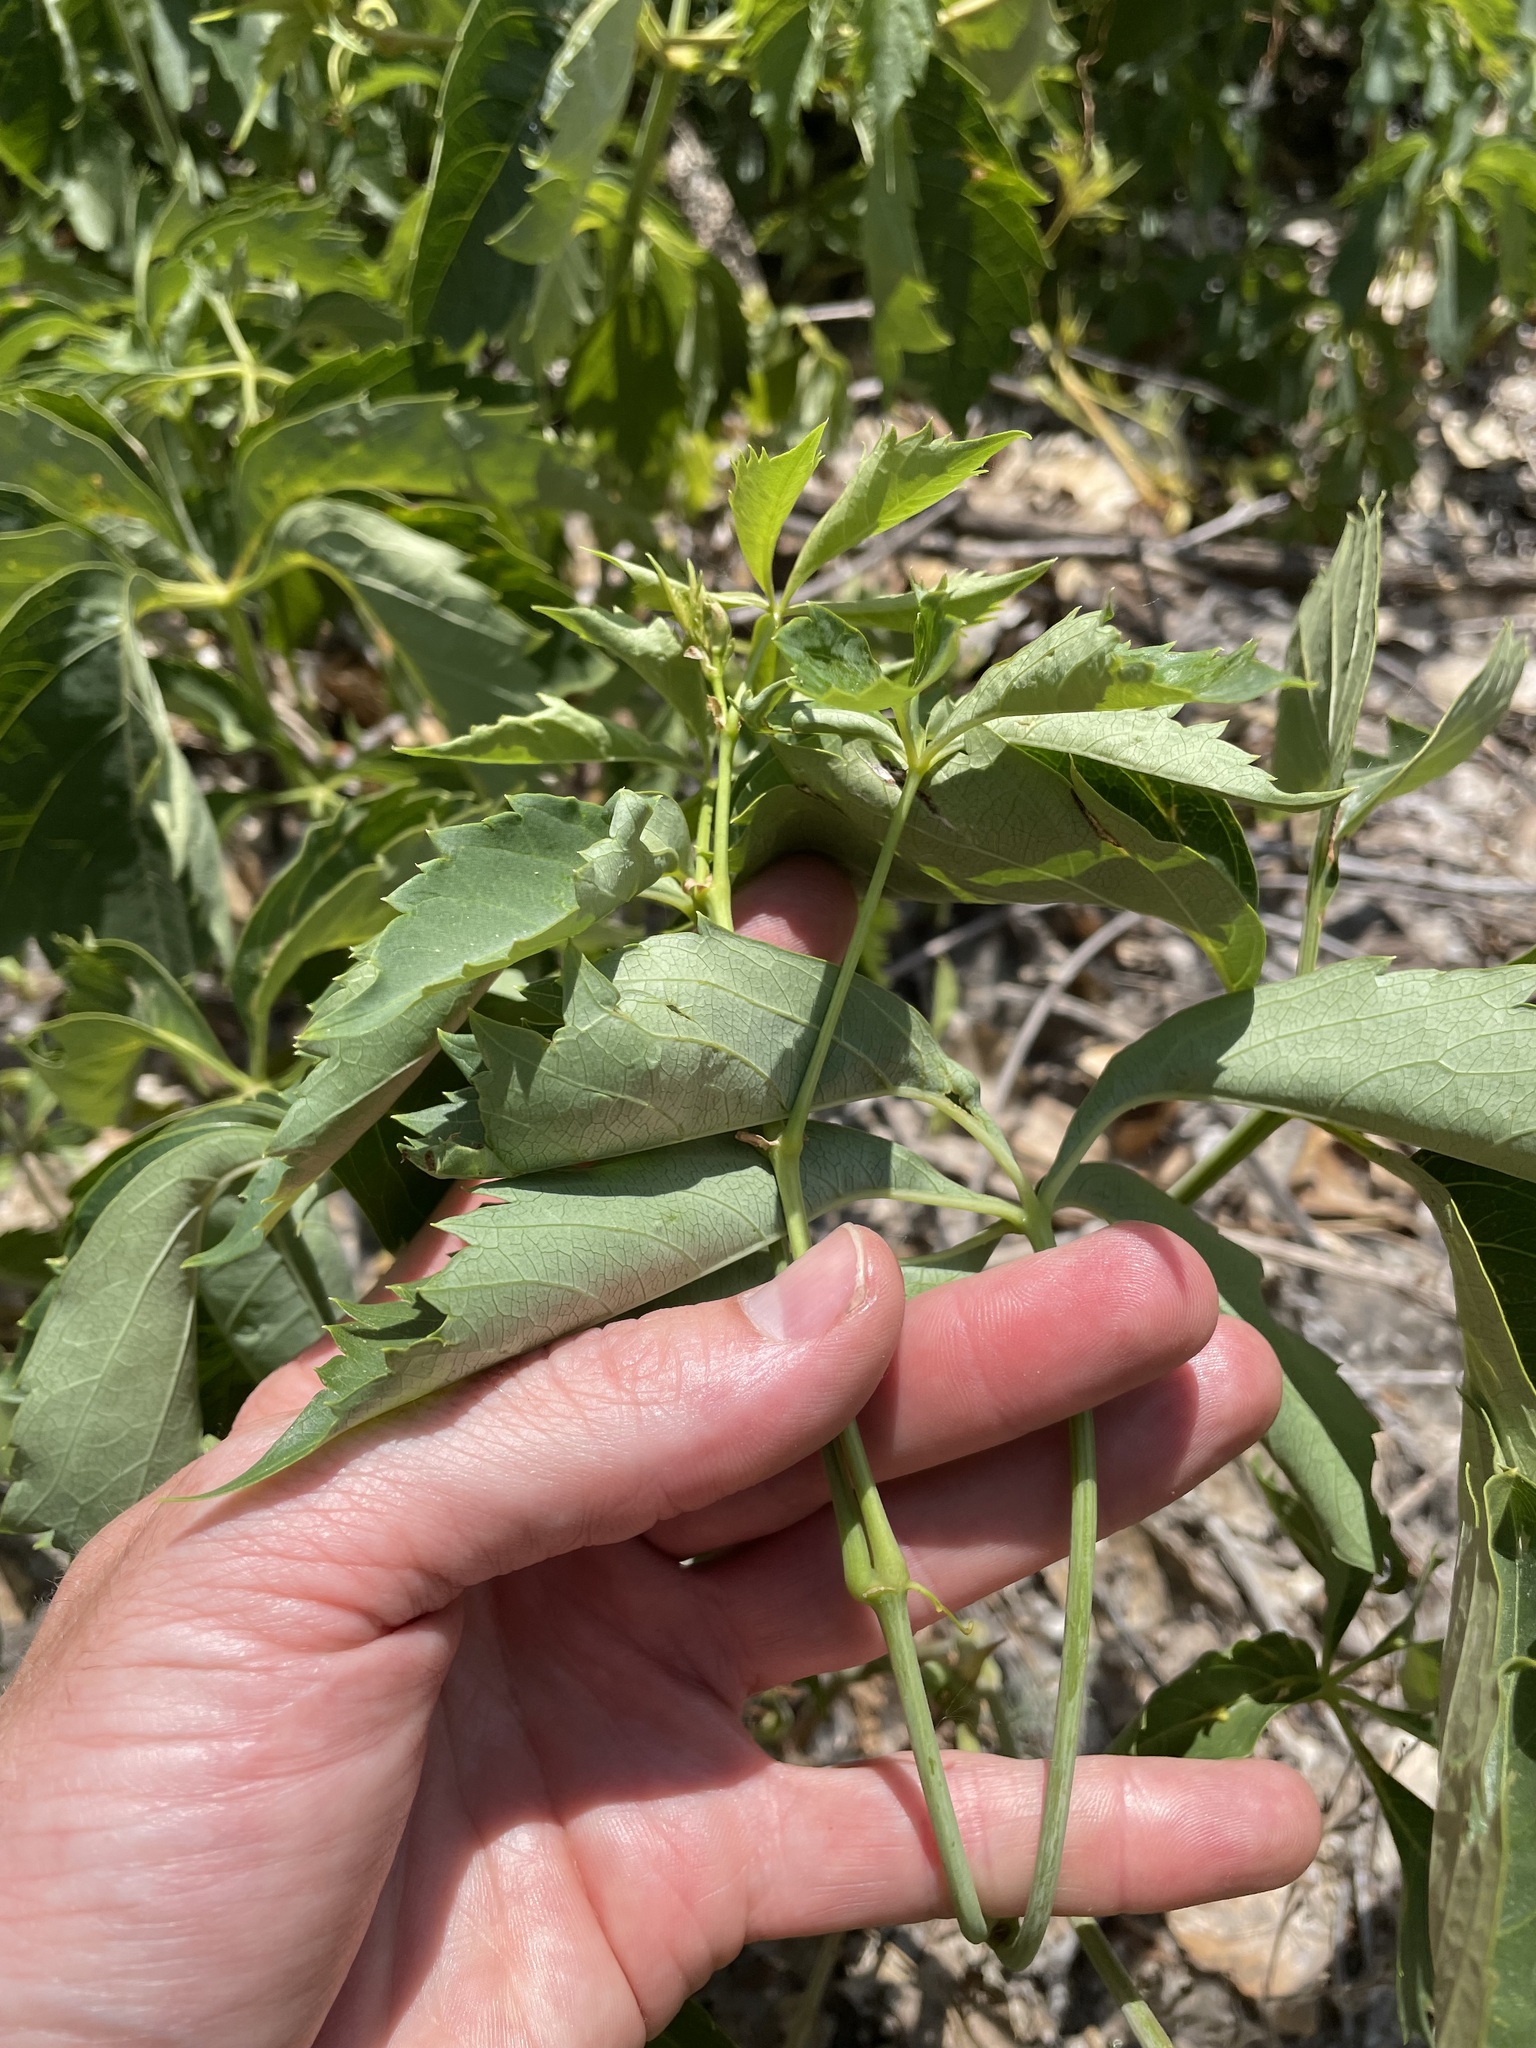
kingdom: Plantae
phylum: Tracheophyta
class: Magnoliopsida
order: Vitales
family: Vitaceae
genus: Parthenocissus
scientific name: Parthenocissus quinquefolia
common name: Virginia-creeper
